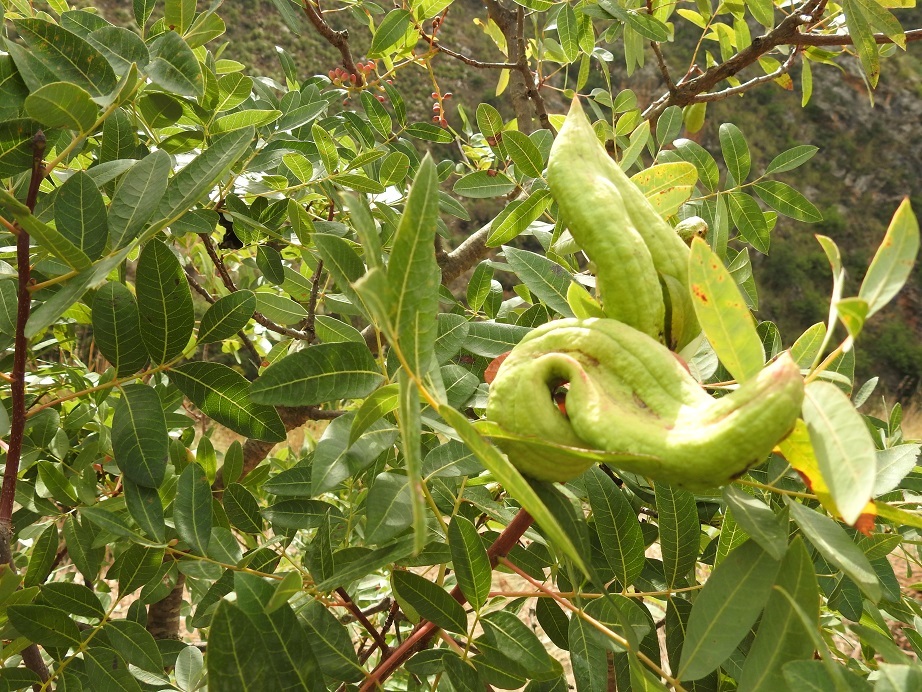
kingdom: Plantae
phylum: Tracheophyta
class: Magnoliopsida
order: Sapindales
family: Anacardiaceae
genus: Pistacia
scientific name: Pistacia terebinthus
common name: Terebinth
